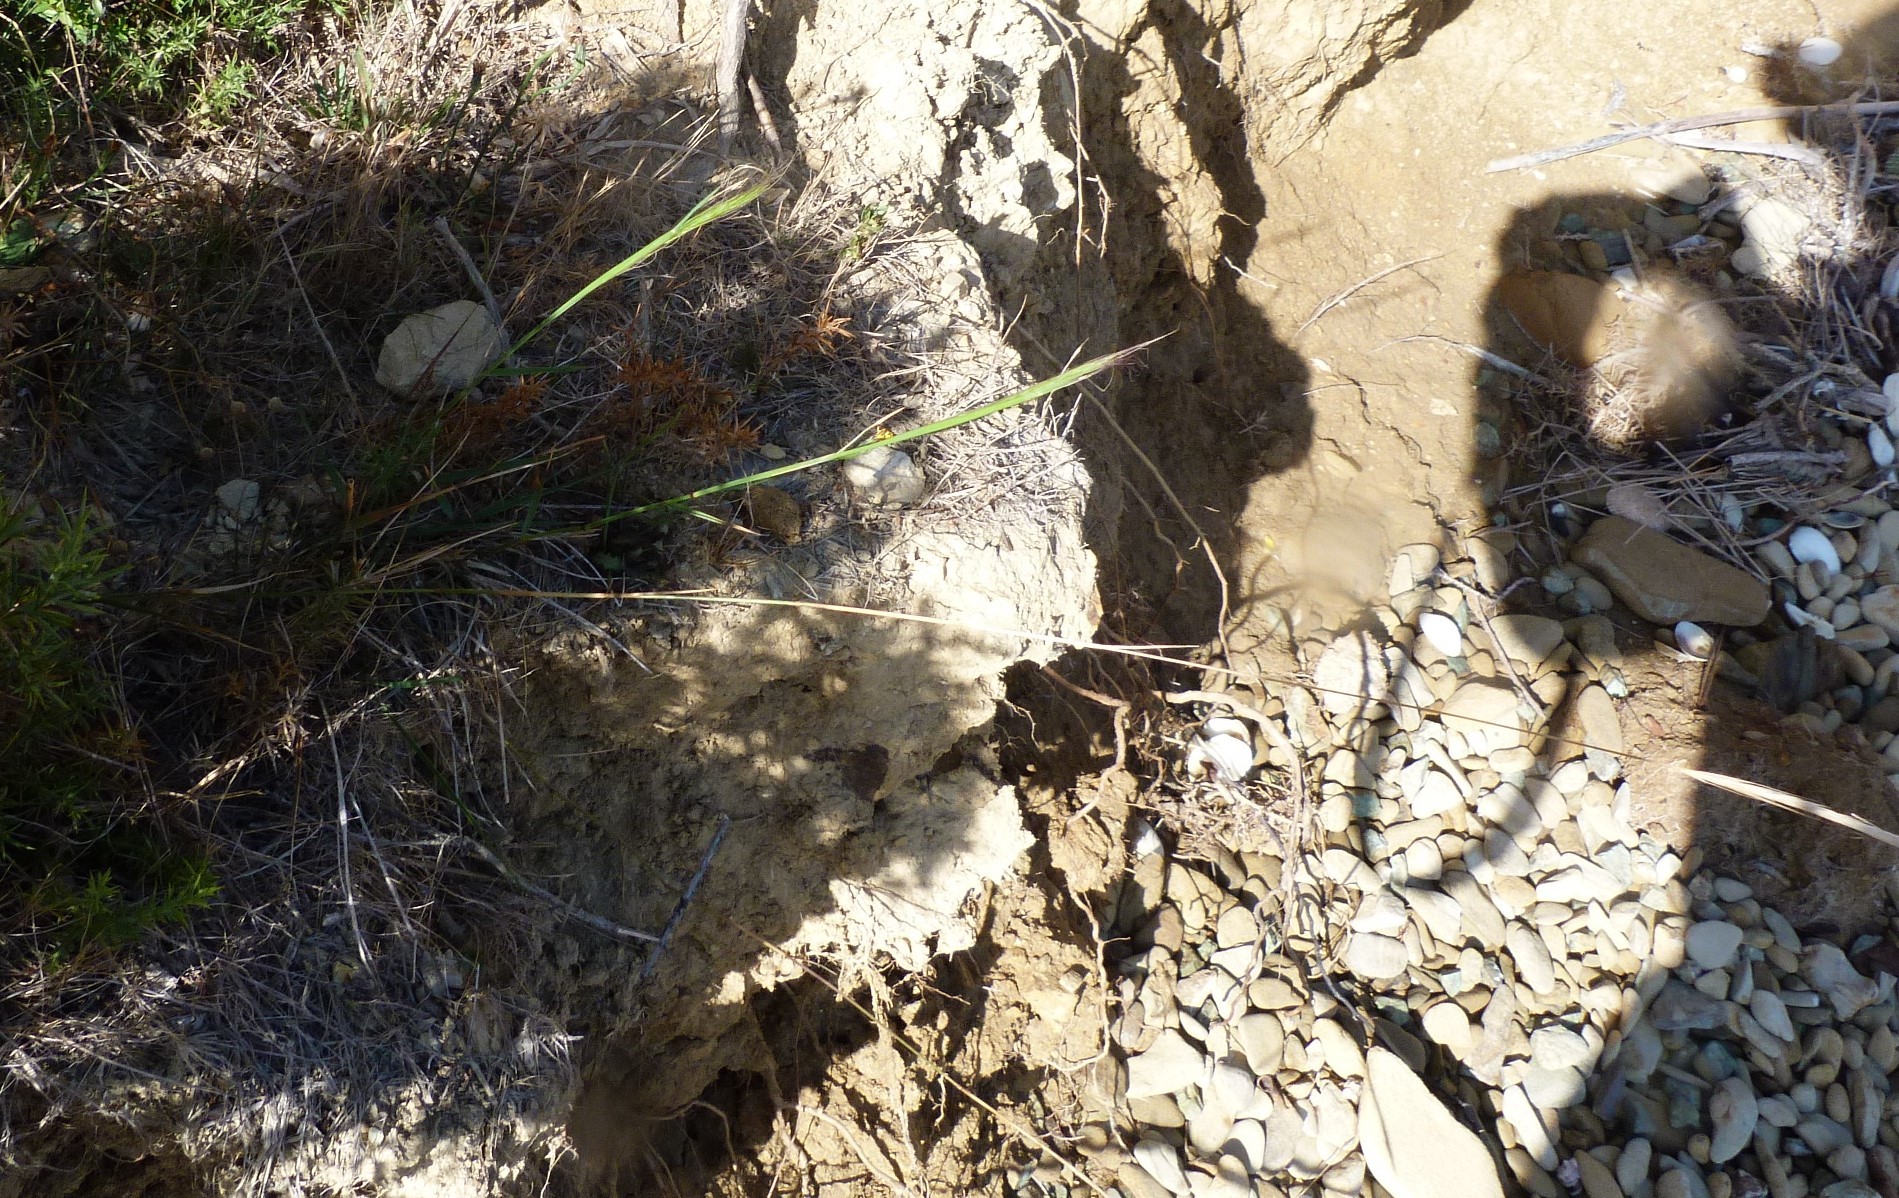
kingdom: Plantae
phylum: Tracheophyta
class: Liliopsida
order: Poales
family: Poaceae
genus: Dichelachne
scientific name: Dichelachne crinita
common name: Clovenfoot plumegrass
